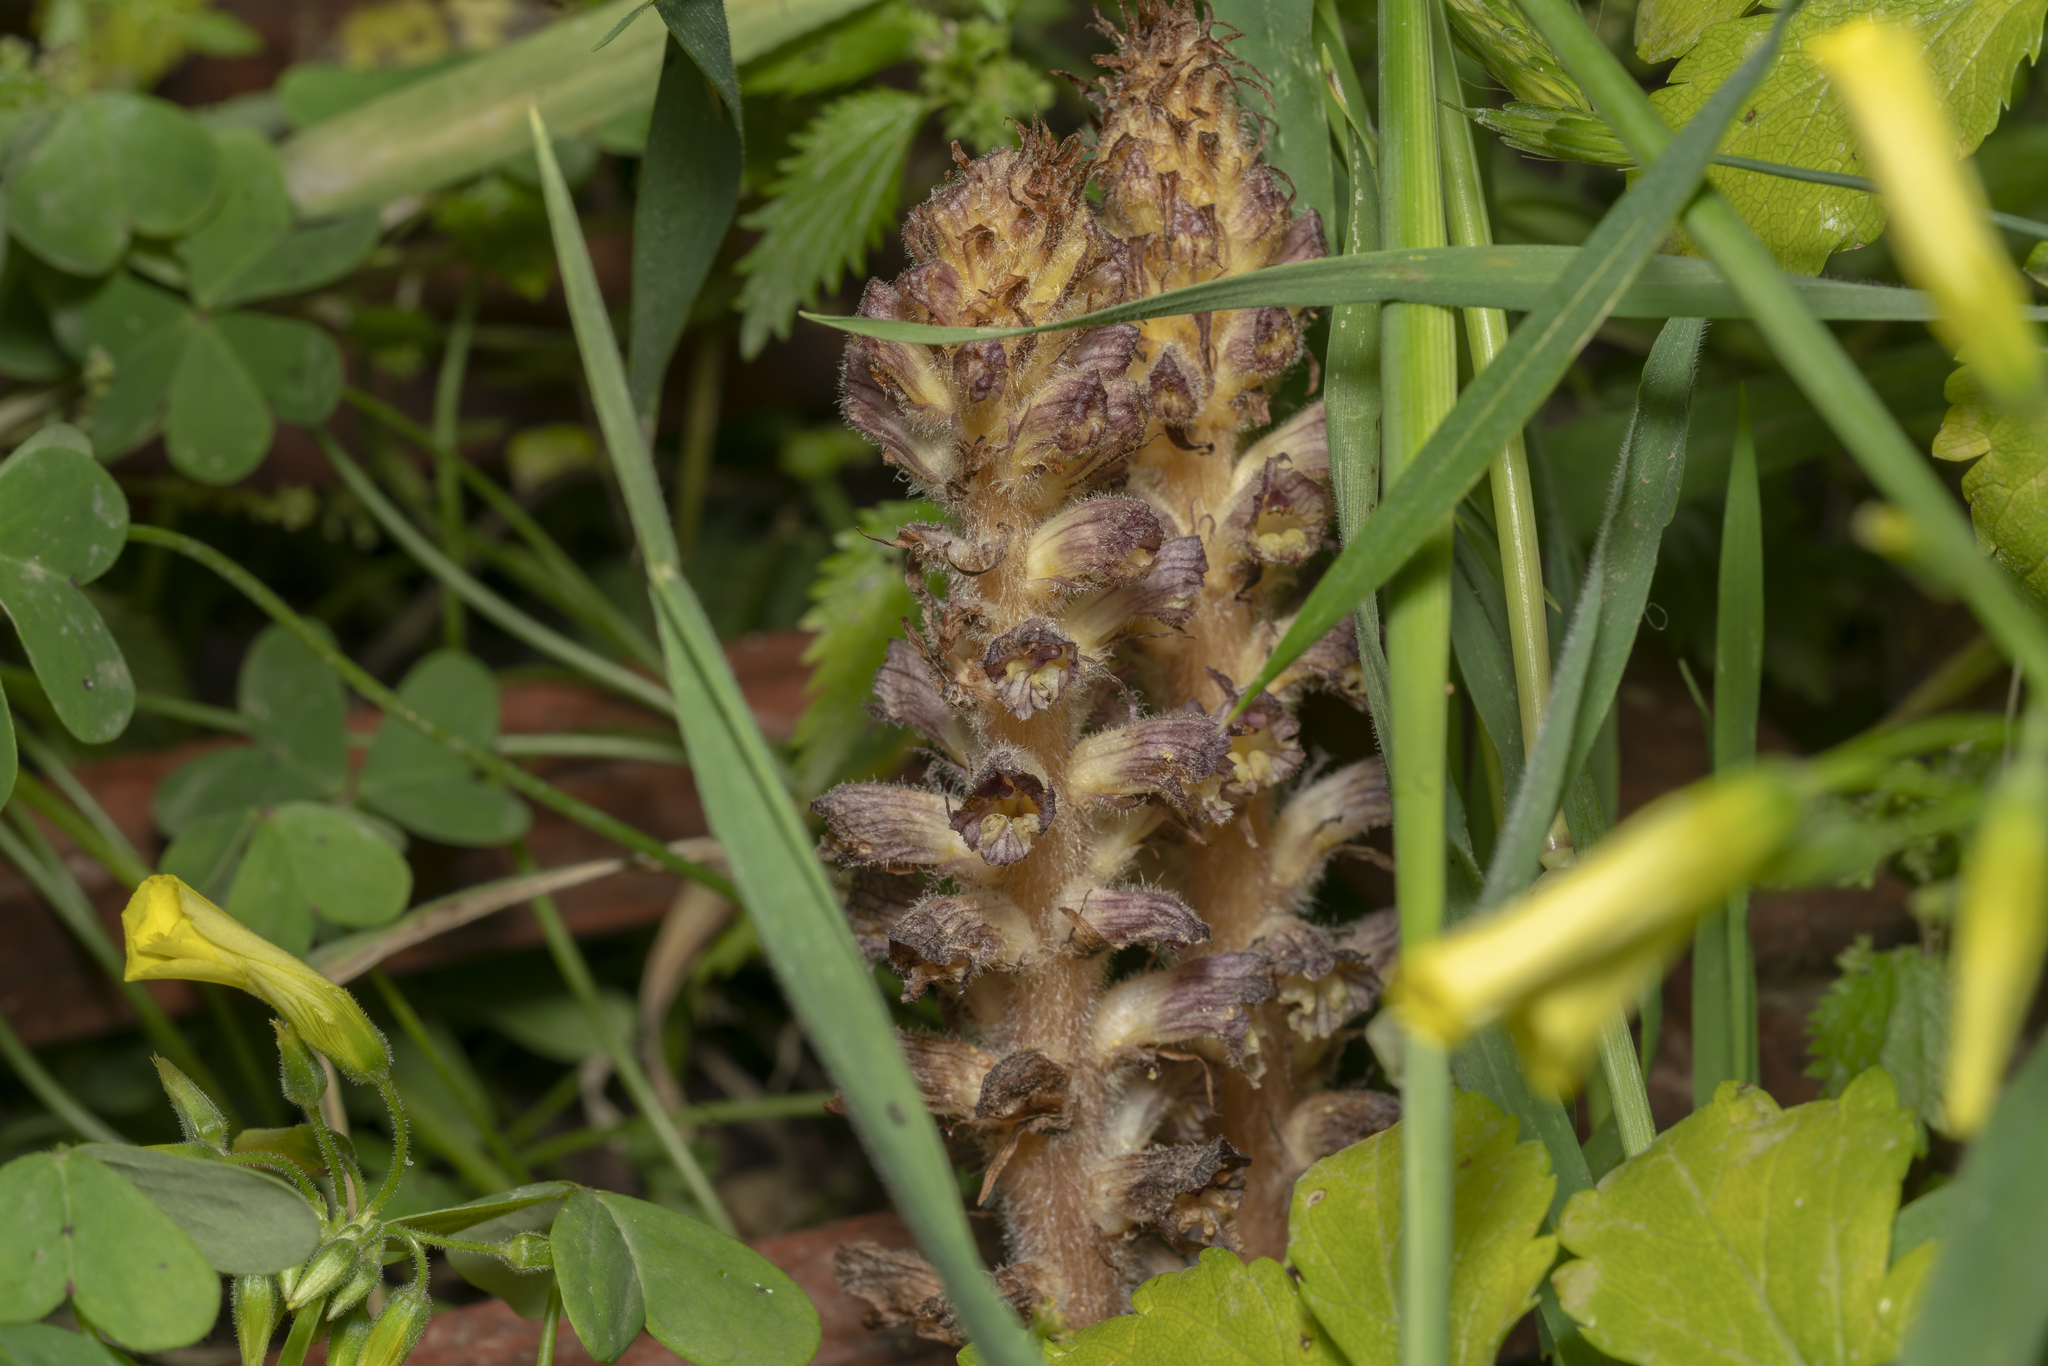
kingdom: Plantae
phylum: Tracheophyta
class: Magnoliopsida
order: Lamiales
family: Orobanchaceae
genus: Orobanche
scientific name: Orobanche pubescens
